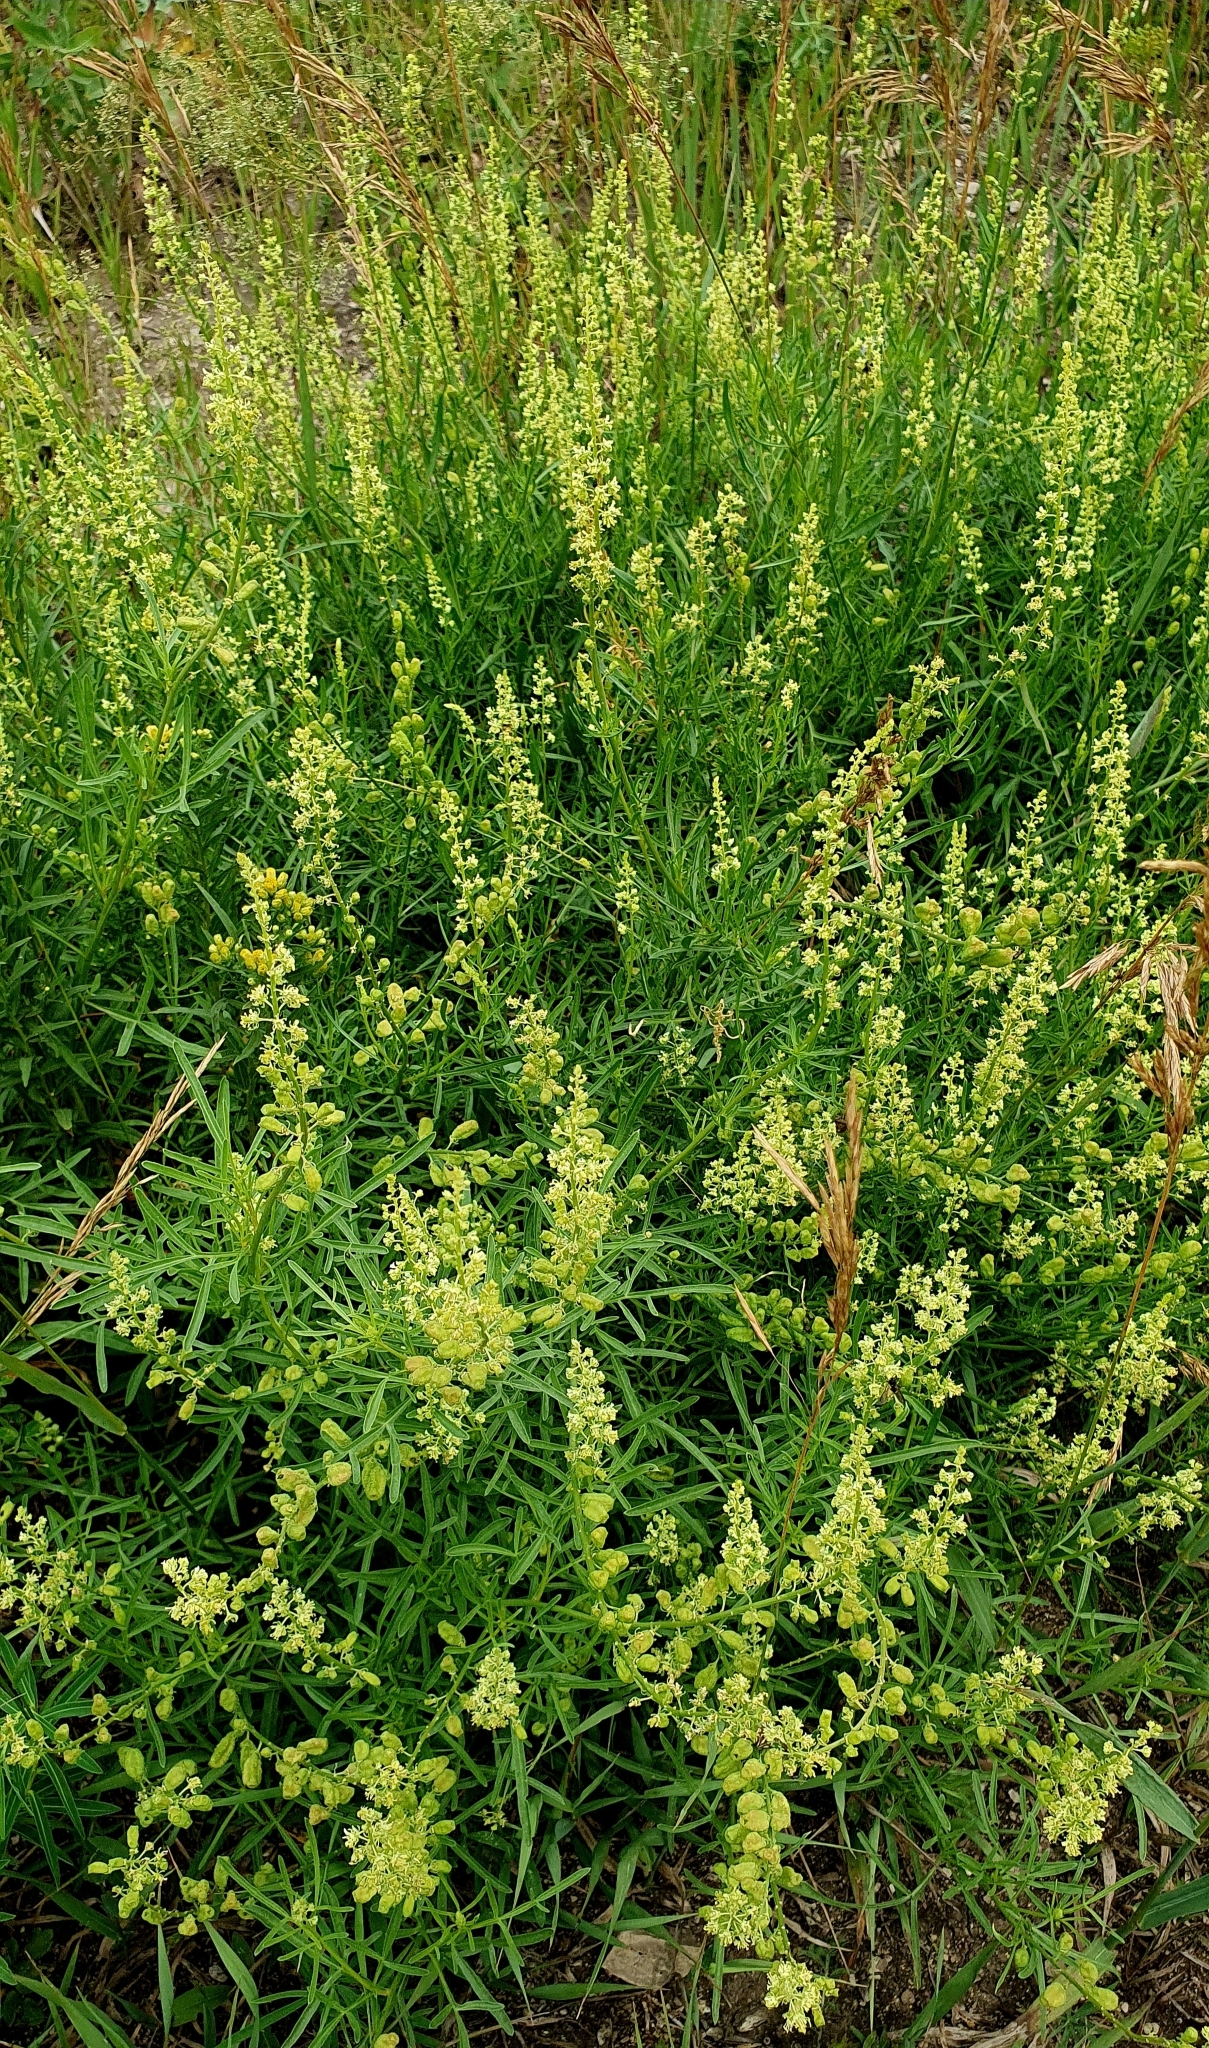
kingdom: Plantae
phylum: Tracheophyta
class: Magnoliopsida
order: Brassicales
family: Resedaceae
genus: Reseda
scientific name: Reseda lutea
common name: Wild mignonette
